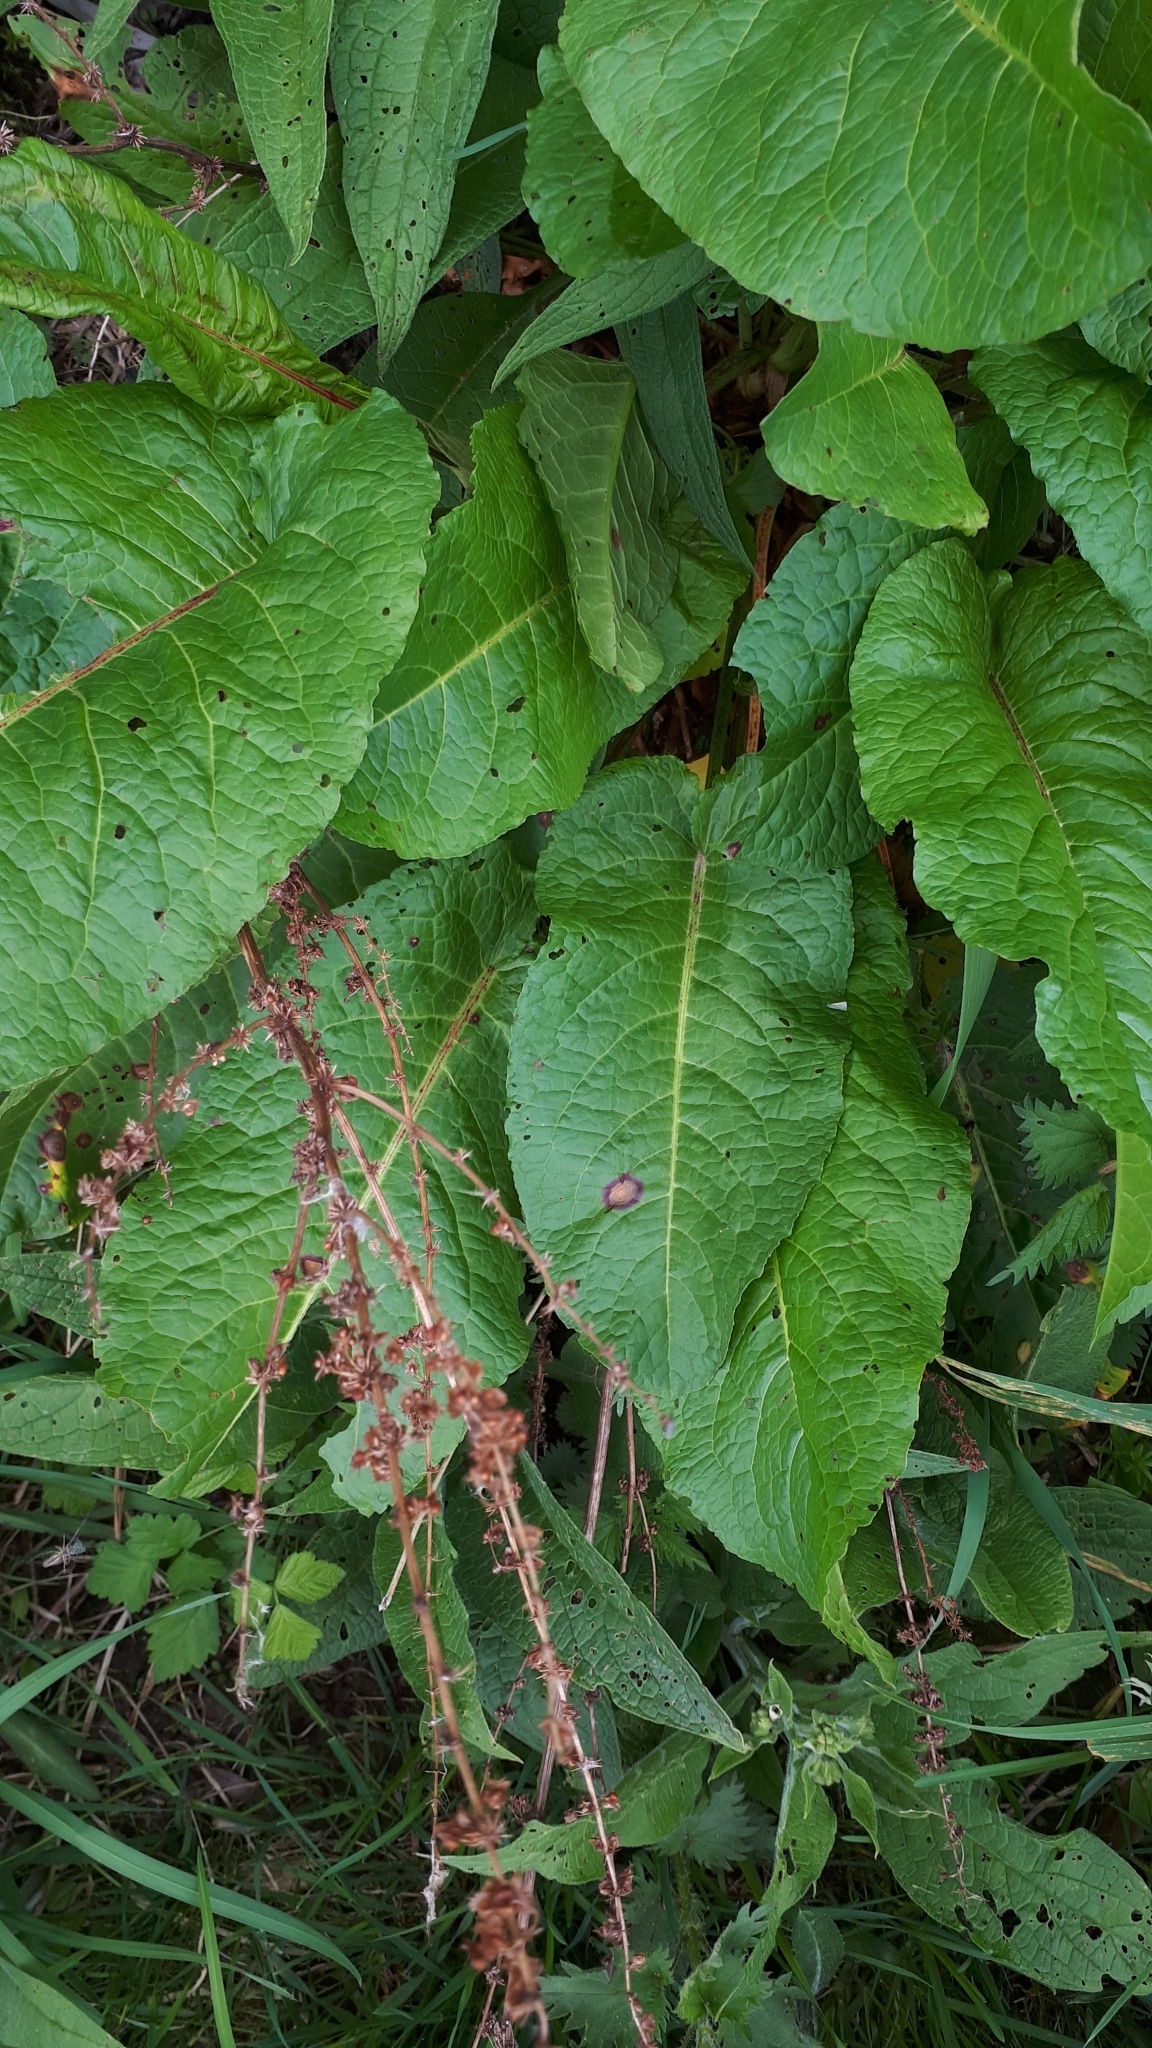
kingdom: Plantae
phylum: Tracheophyta
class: Magnoliopsida
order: Caryophyllales
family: Polygonaceae
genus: Rumex
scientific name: Rumex obtusifolius
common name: Bitter dock
